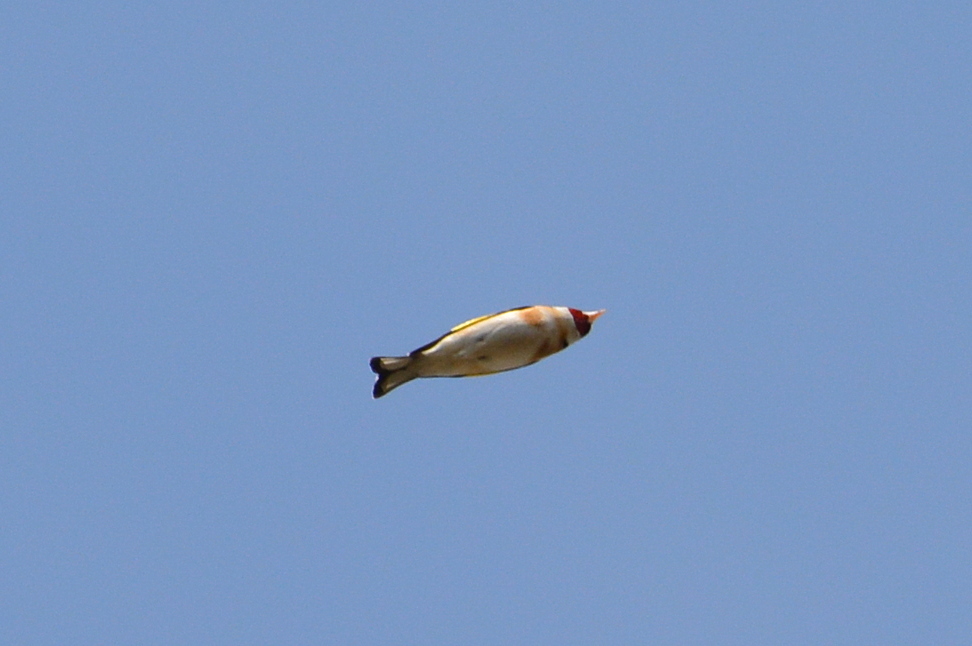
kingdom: Animalia
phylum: Chordata
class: Aves
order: Passeriformes
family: Fringillidae
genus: Carduelis
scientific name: Carduelis carduelis
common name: European goldfinch
